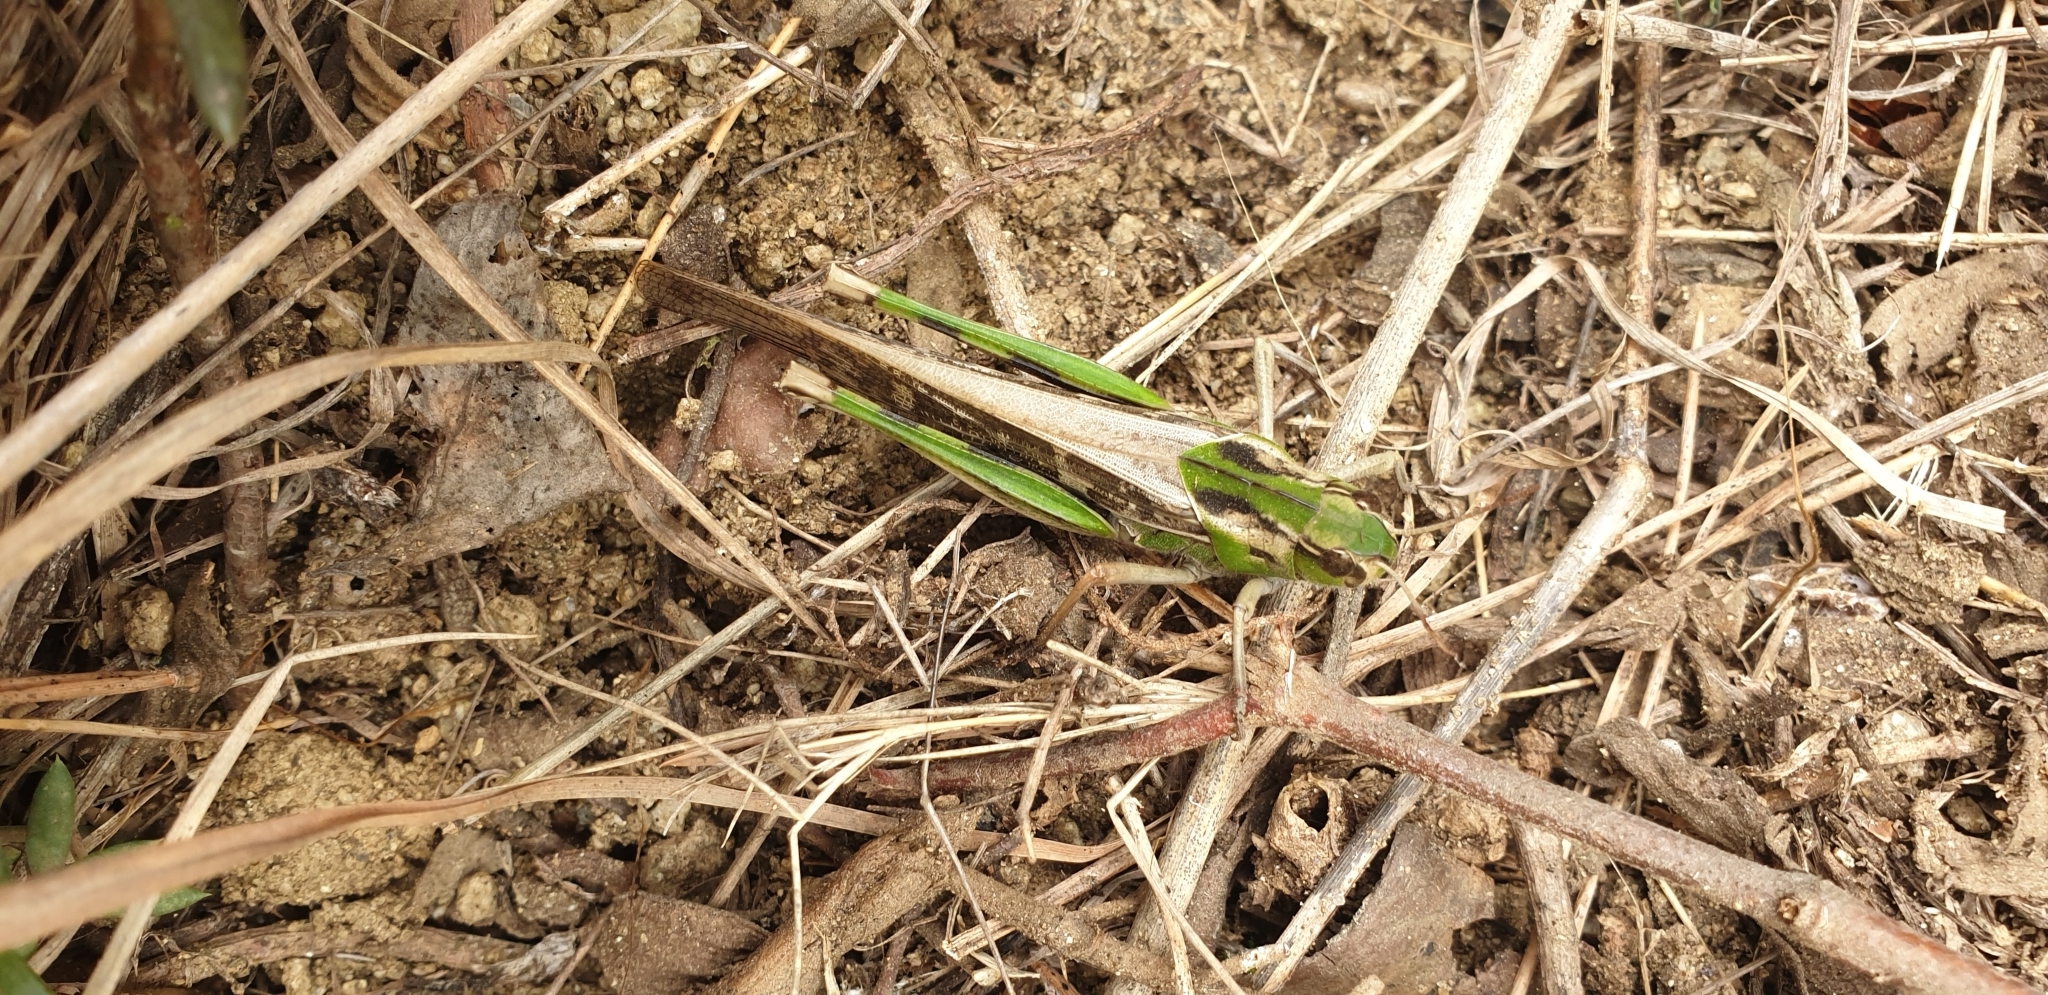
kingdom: Animalia
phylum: Arthropoda
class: Insecta
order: Orthoptera
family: Acrididae
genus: Locusta
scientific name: Locusta migratoria
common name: Migratory locust
